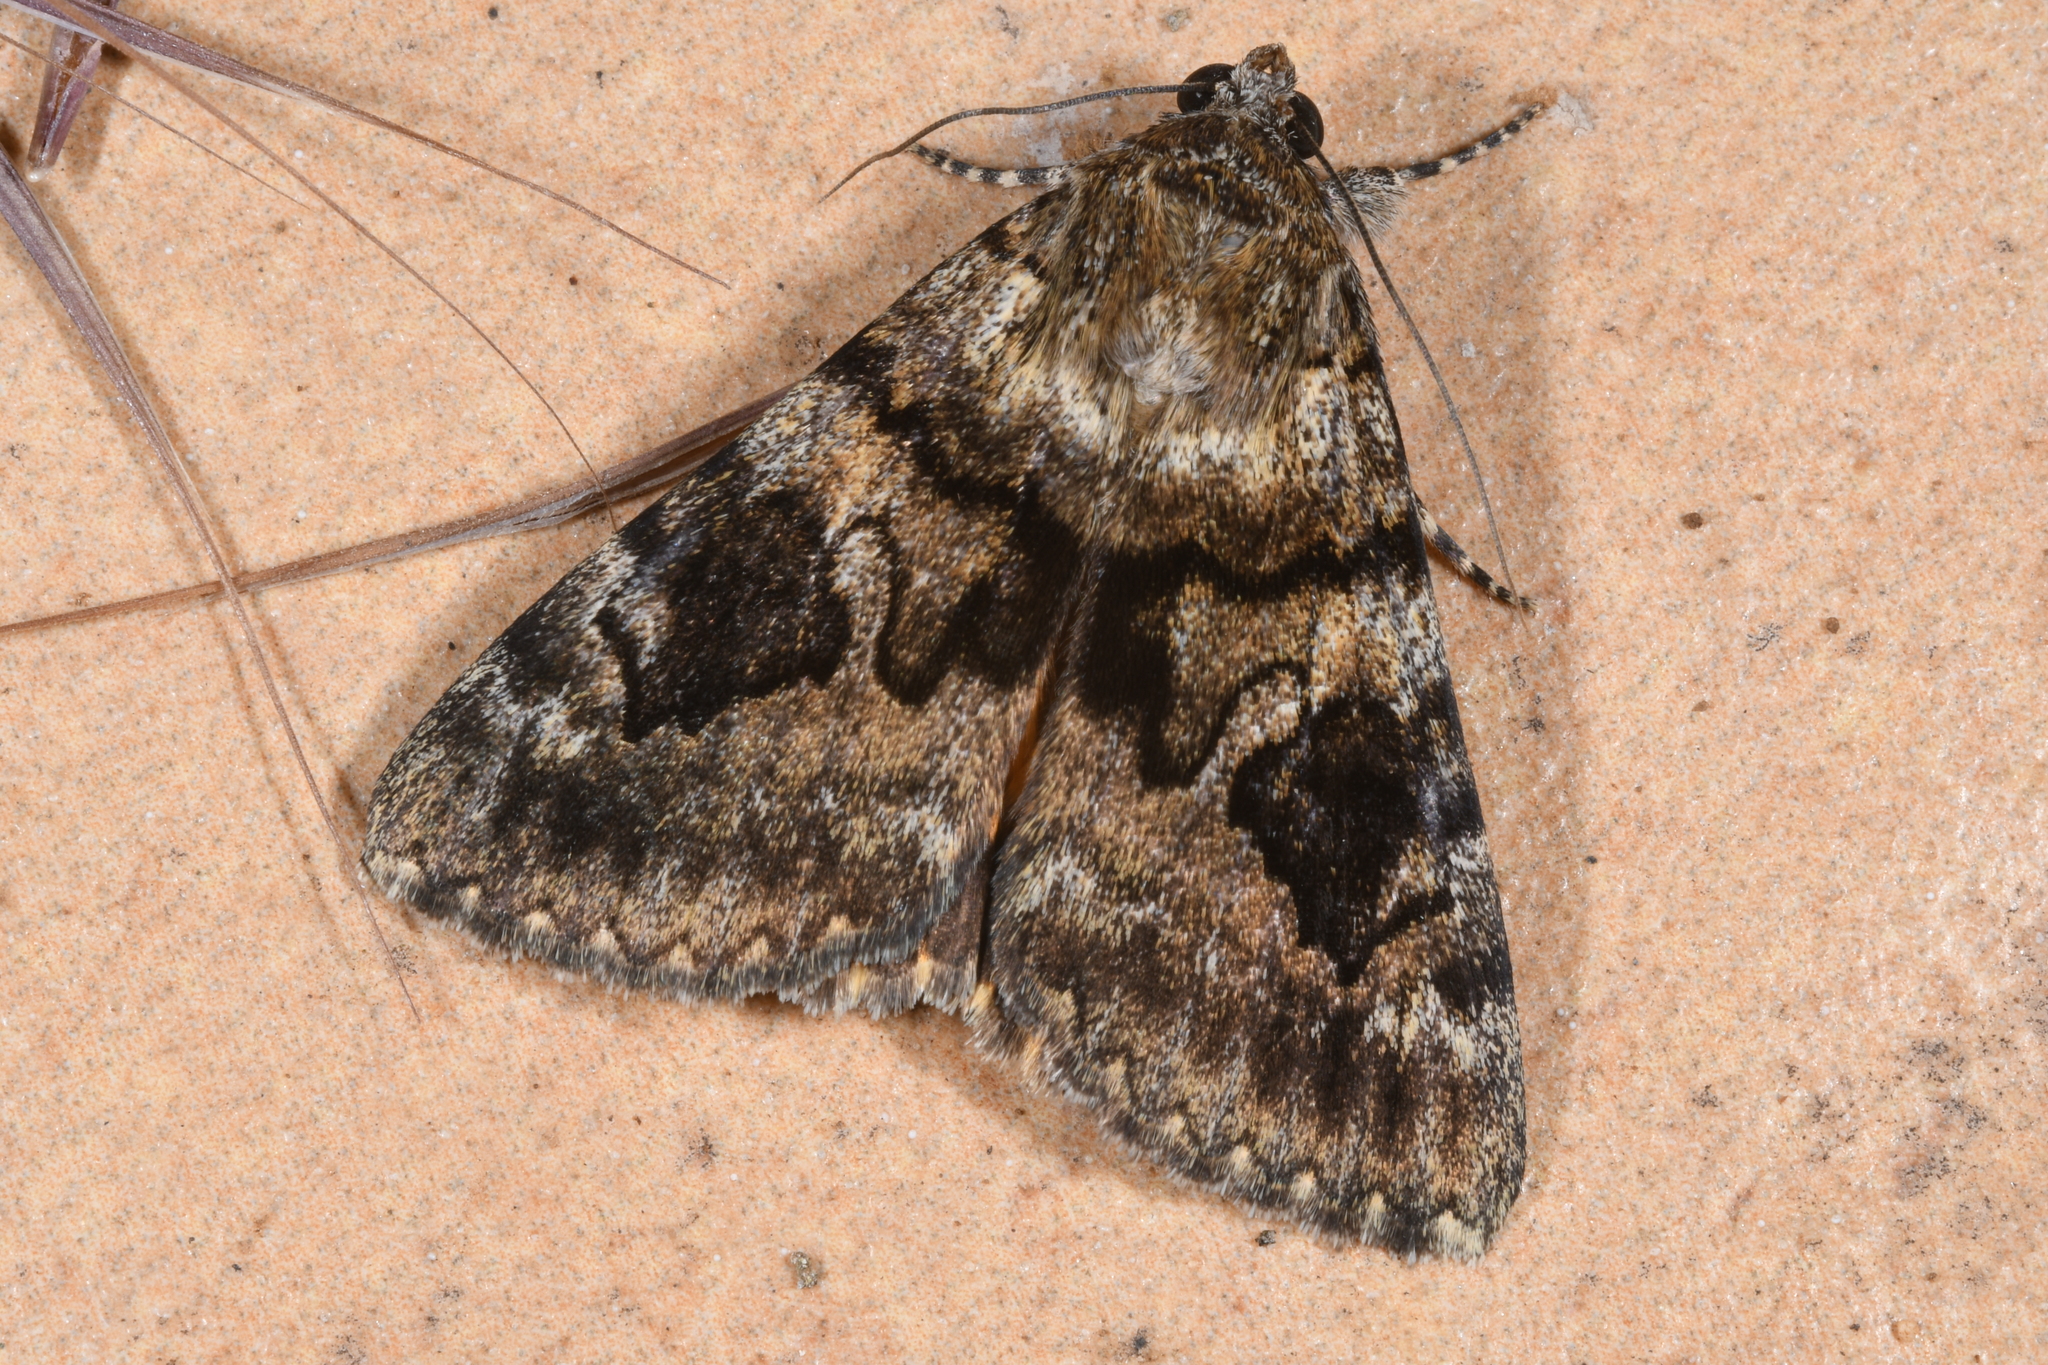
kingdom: Animalia
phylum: Arthropoda
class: Insecta
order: Lepidoptera
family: Erebidae
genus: Catocala
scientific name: Catocala nymphagoga
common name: Oak yellow underwing
